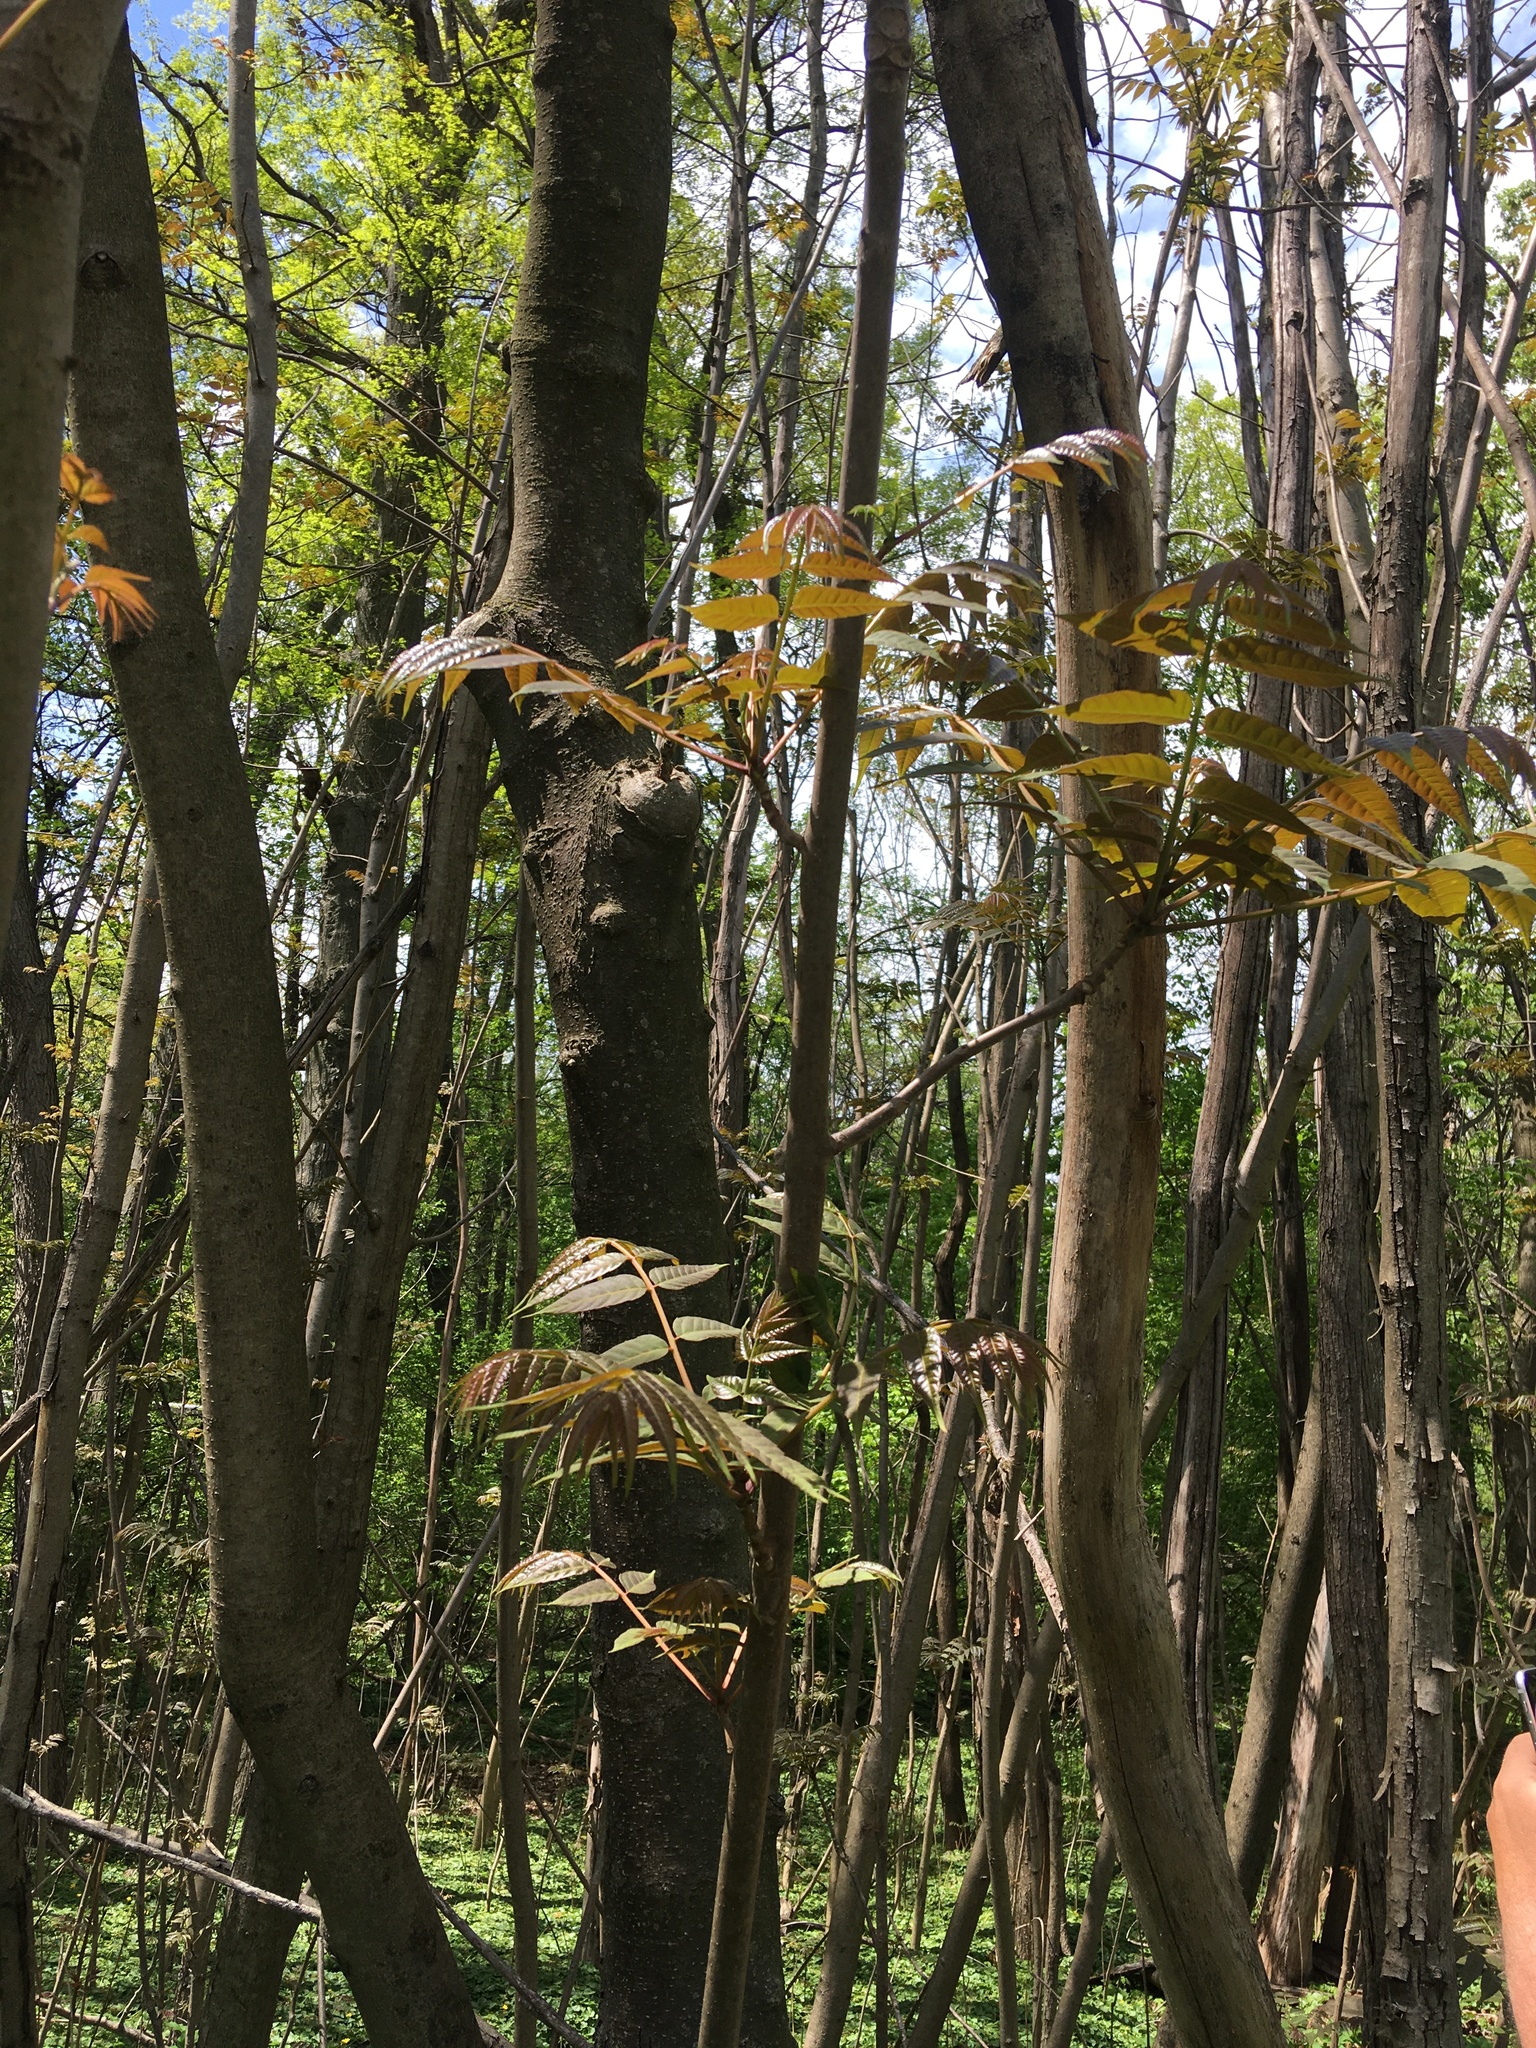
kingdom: Plantae
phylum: Tracheophyta
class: Magnoliopsida
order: Sapindales
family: Meliaceae
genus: Toona
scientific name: Toona sinensis
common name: Red toon
